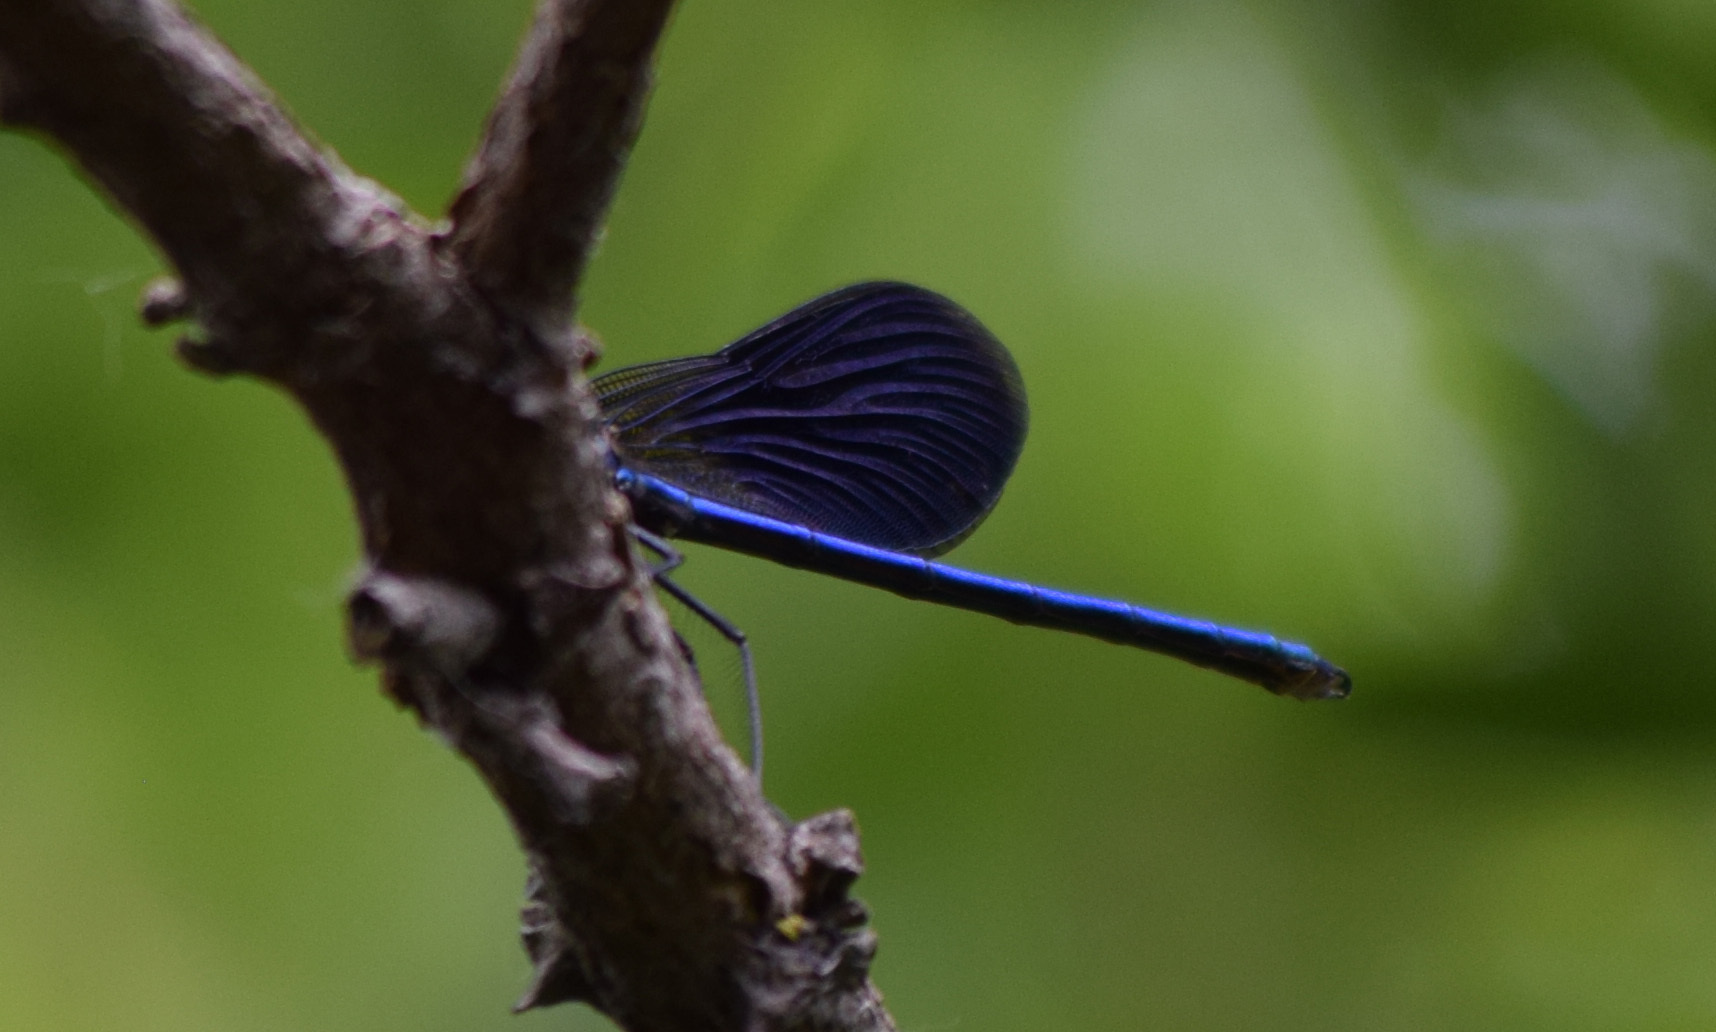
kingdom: Animalia
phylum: Arthropoda
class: Insecta
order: Odonata
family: Calopterygidae
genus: Calopteryx
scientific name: Calopteryx splendens
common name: Banded demoiselle
